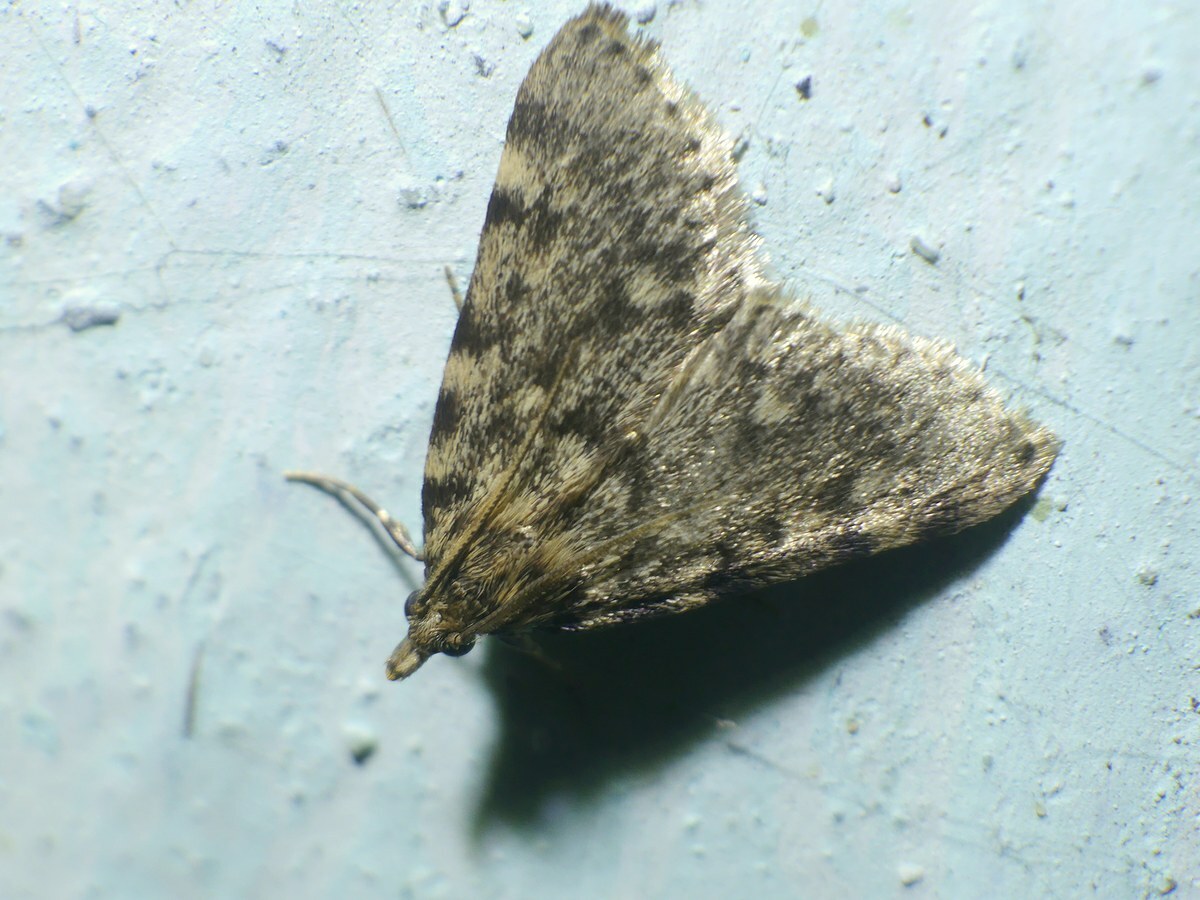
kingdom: Animalia
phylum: Arthropoda
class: Insecta
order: Lepidoptera
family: Pyralidae
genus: Aglossa
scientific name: Aglossa pinguinalis
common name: Large tabby
